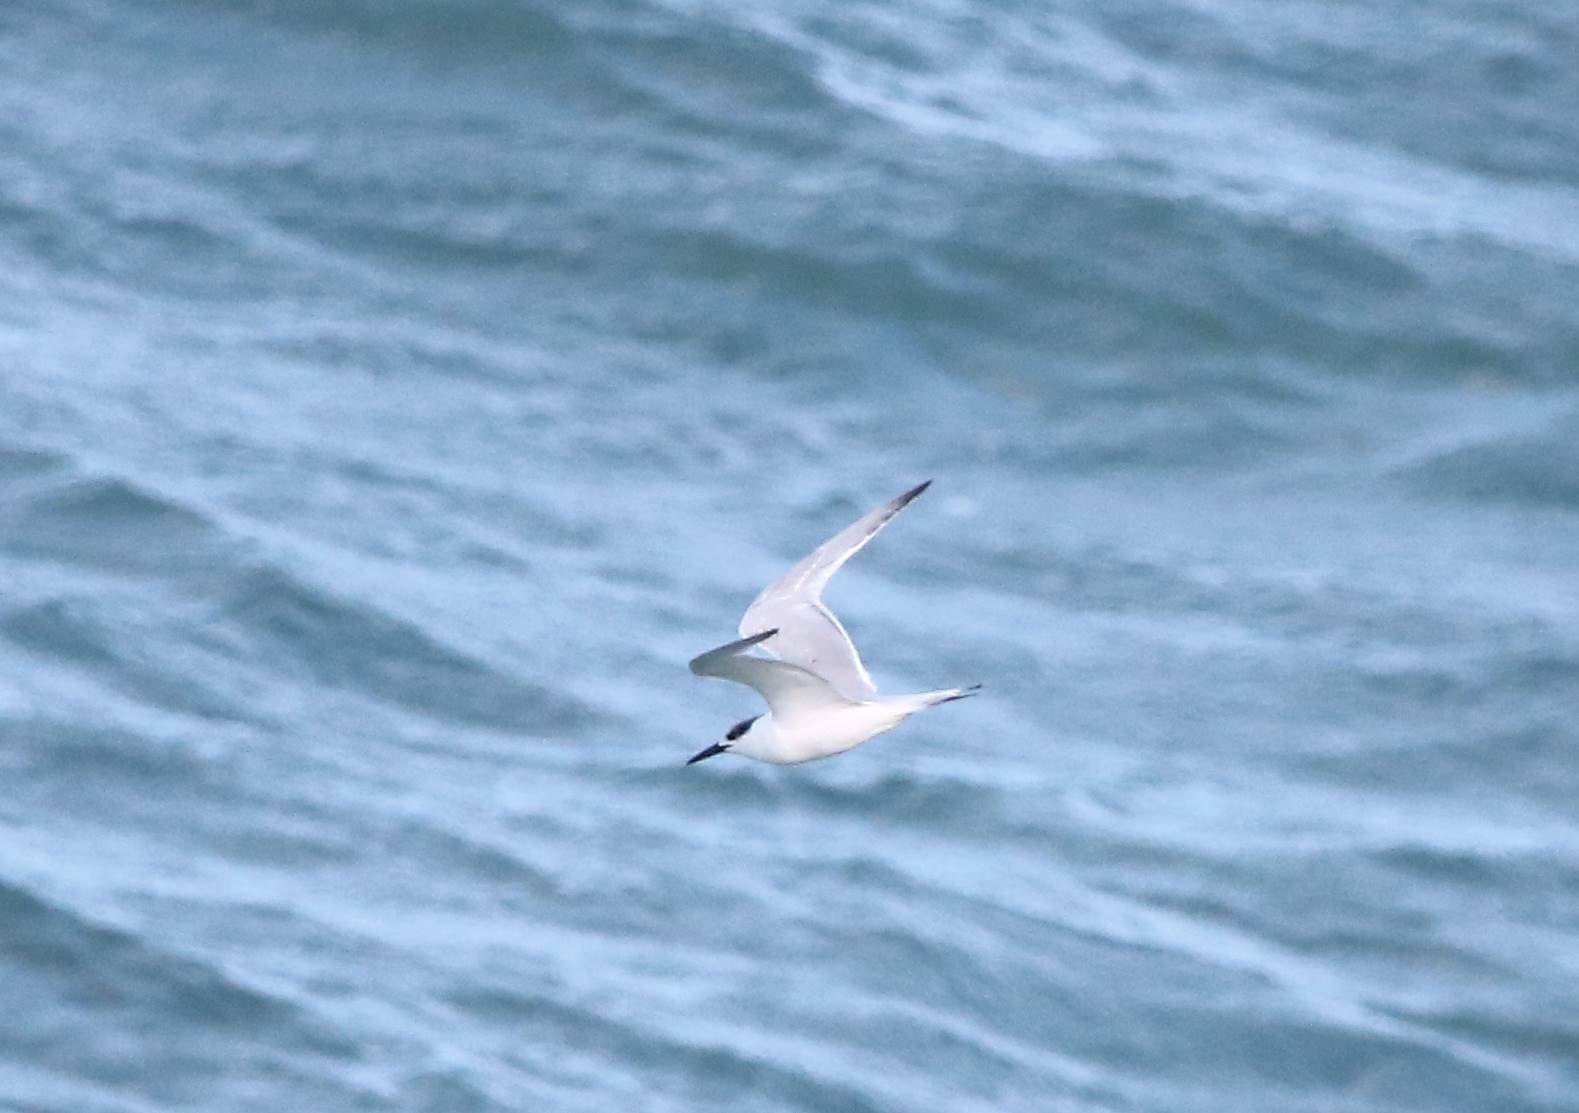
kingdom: Animalia
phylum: Chordata
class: Aves
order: Charadriiformes
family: Laridae
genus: Thalasseus
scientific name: Thalasseus sandvicensis
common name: Sandwich tern
